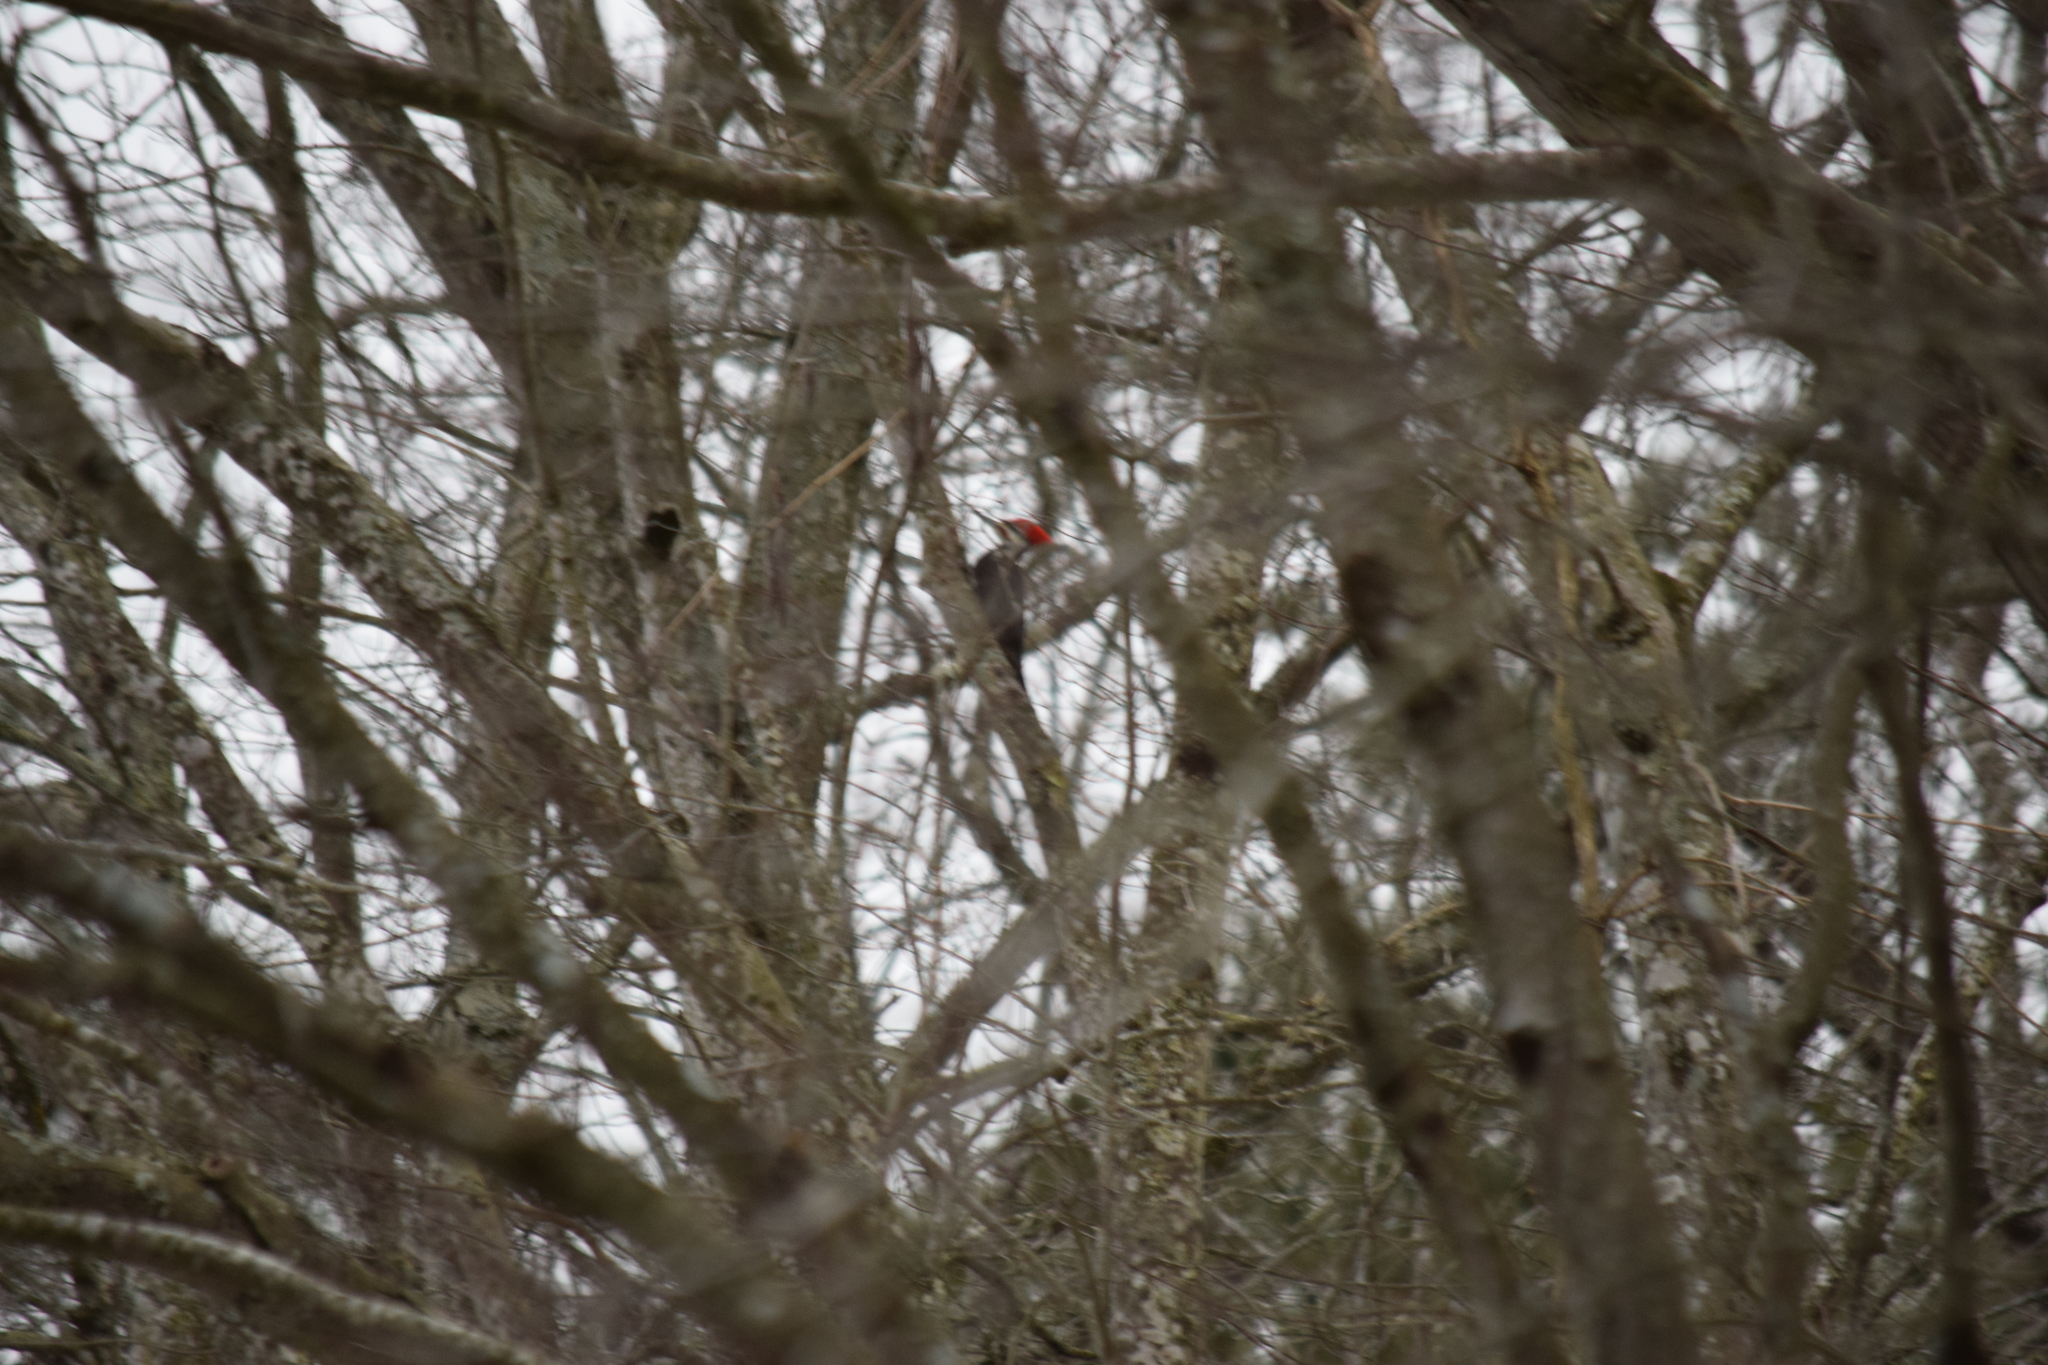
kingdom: Animalia
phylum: Chordata
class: Aves
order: Piciformes
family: Picidae
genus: Dryocopus
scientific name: Dryocopus pileatus
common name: Pileated woodpecker
